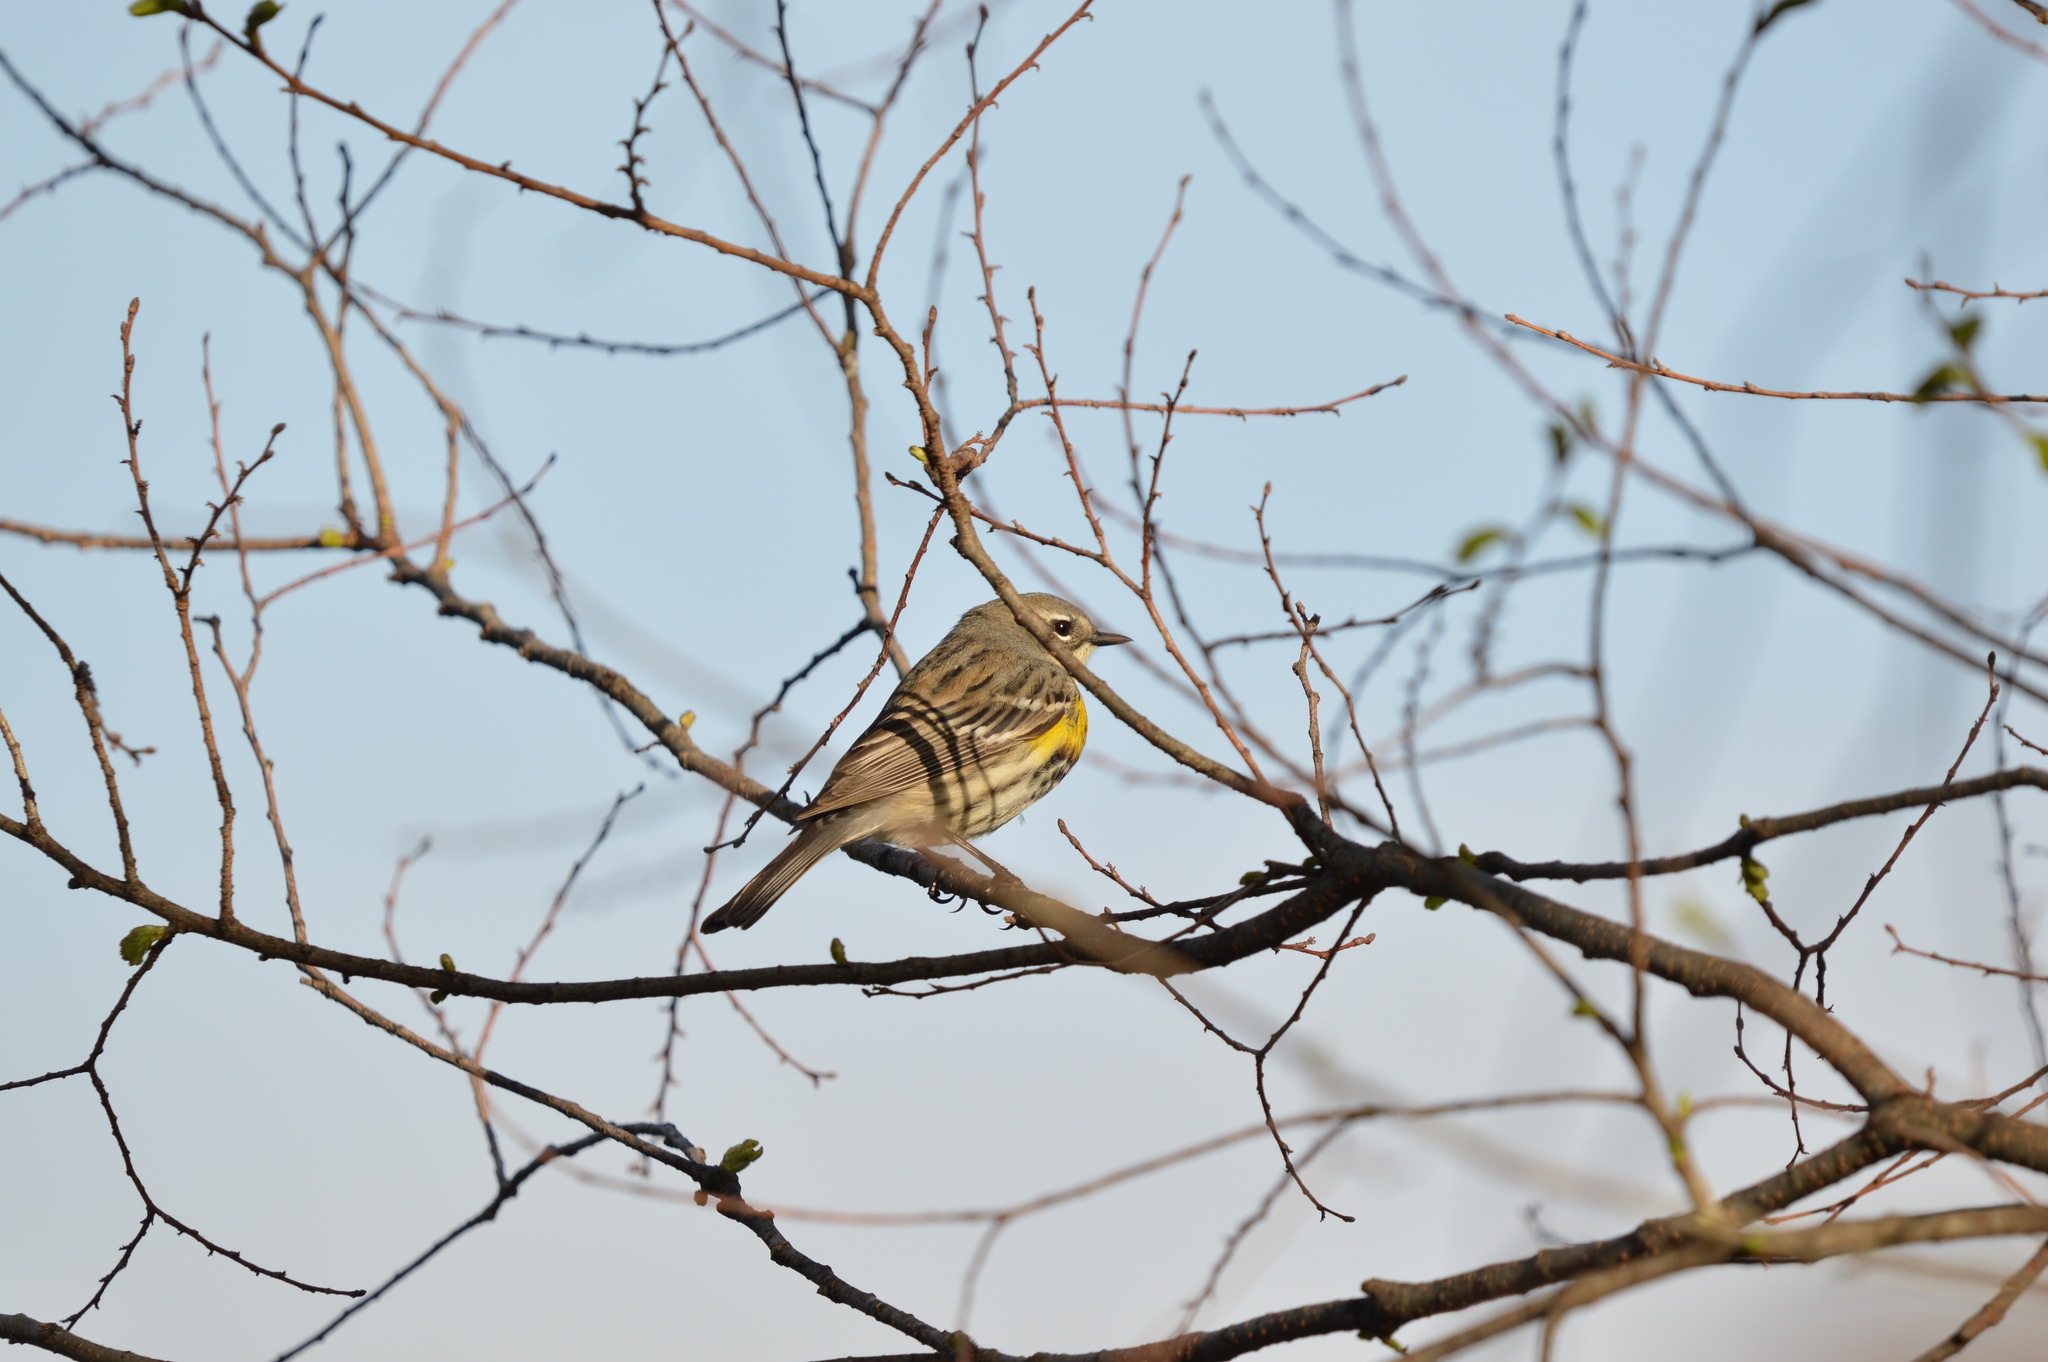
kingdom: Animalia
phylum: Chordata
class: Aves
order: Passeriformes
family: Parulidae
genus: Setophaga
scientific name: Setophaga coronata
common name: Myrtle warbler
